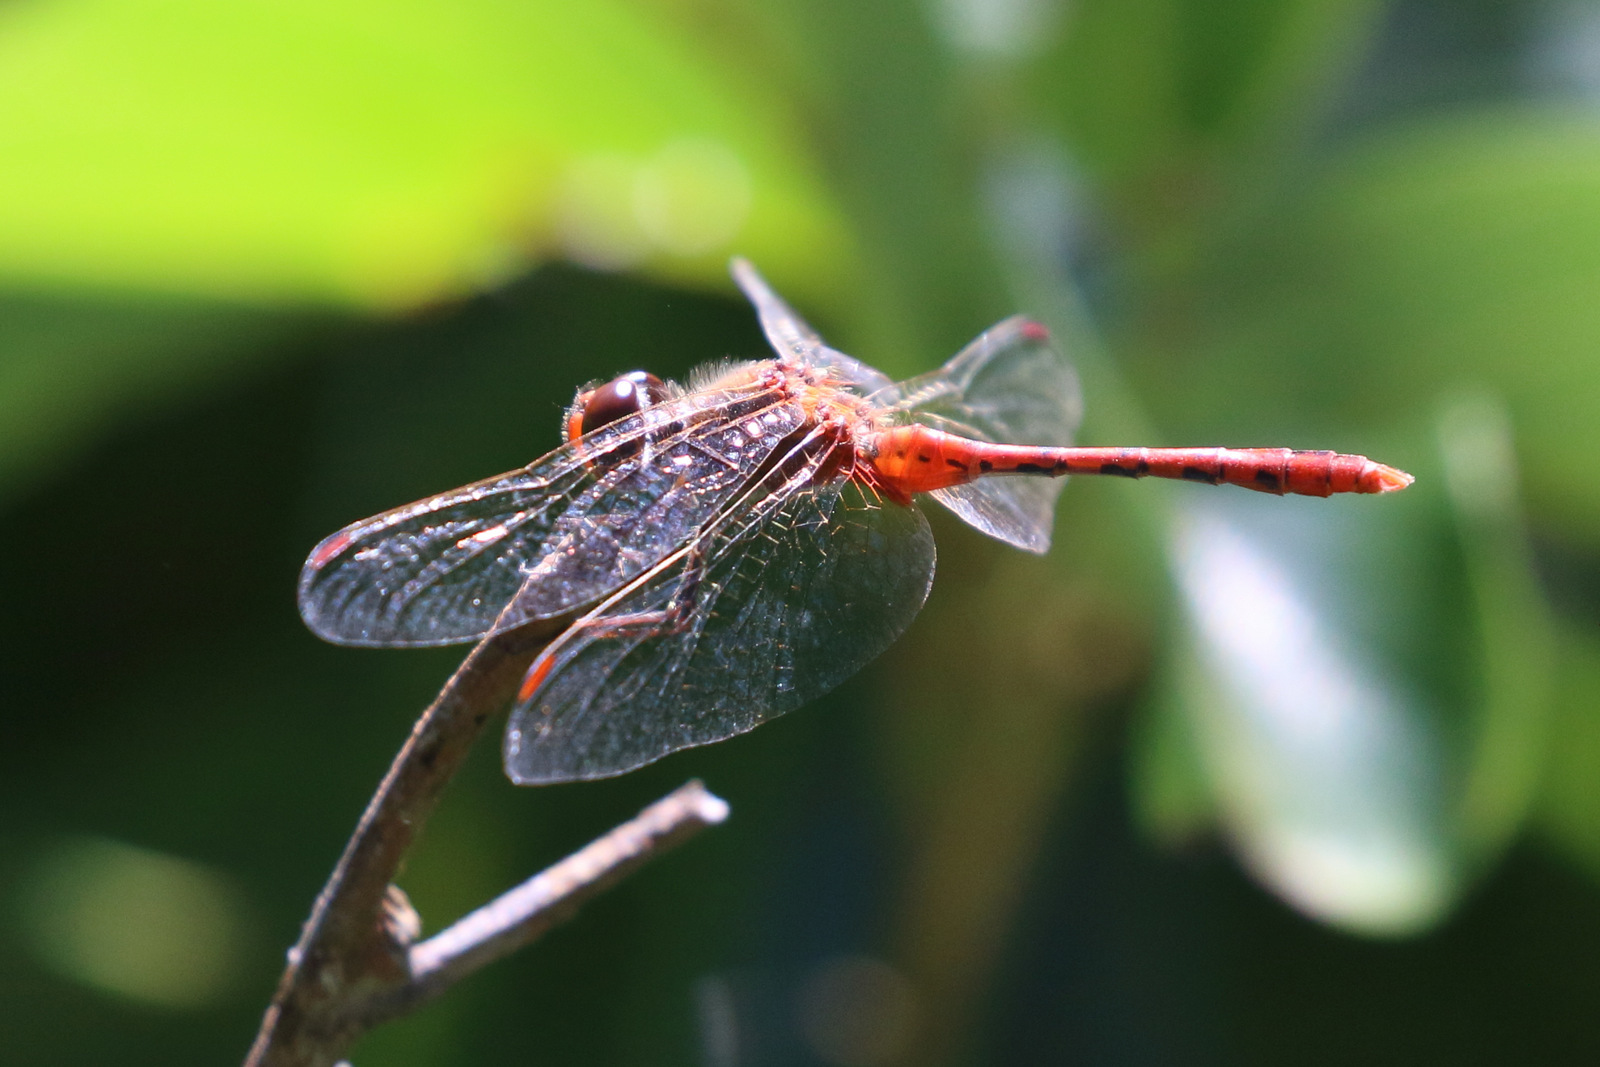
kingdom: Animalia
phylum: Arthropoda
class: Insecta
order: Odonata
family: Libellulidae
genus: Diplacodes
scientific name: Diplacodes bipunctata
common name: Red percher dragonfly
